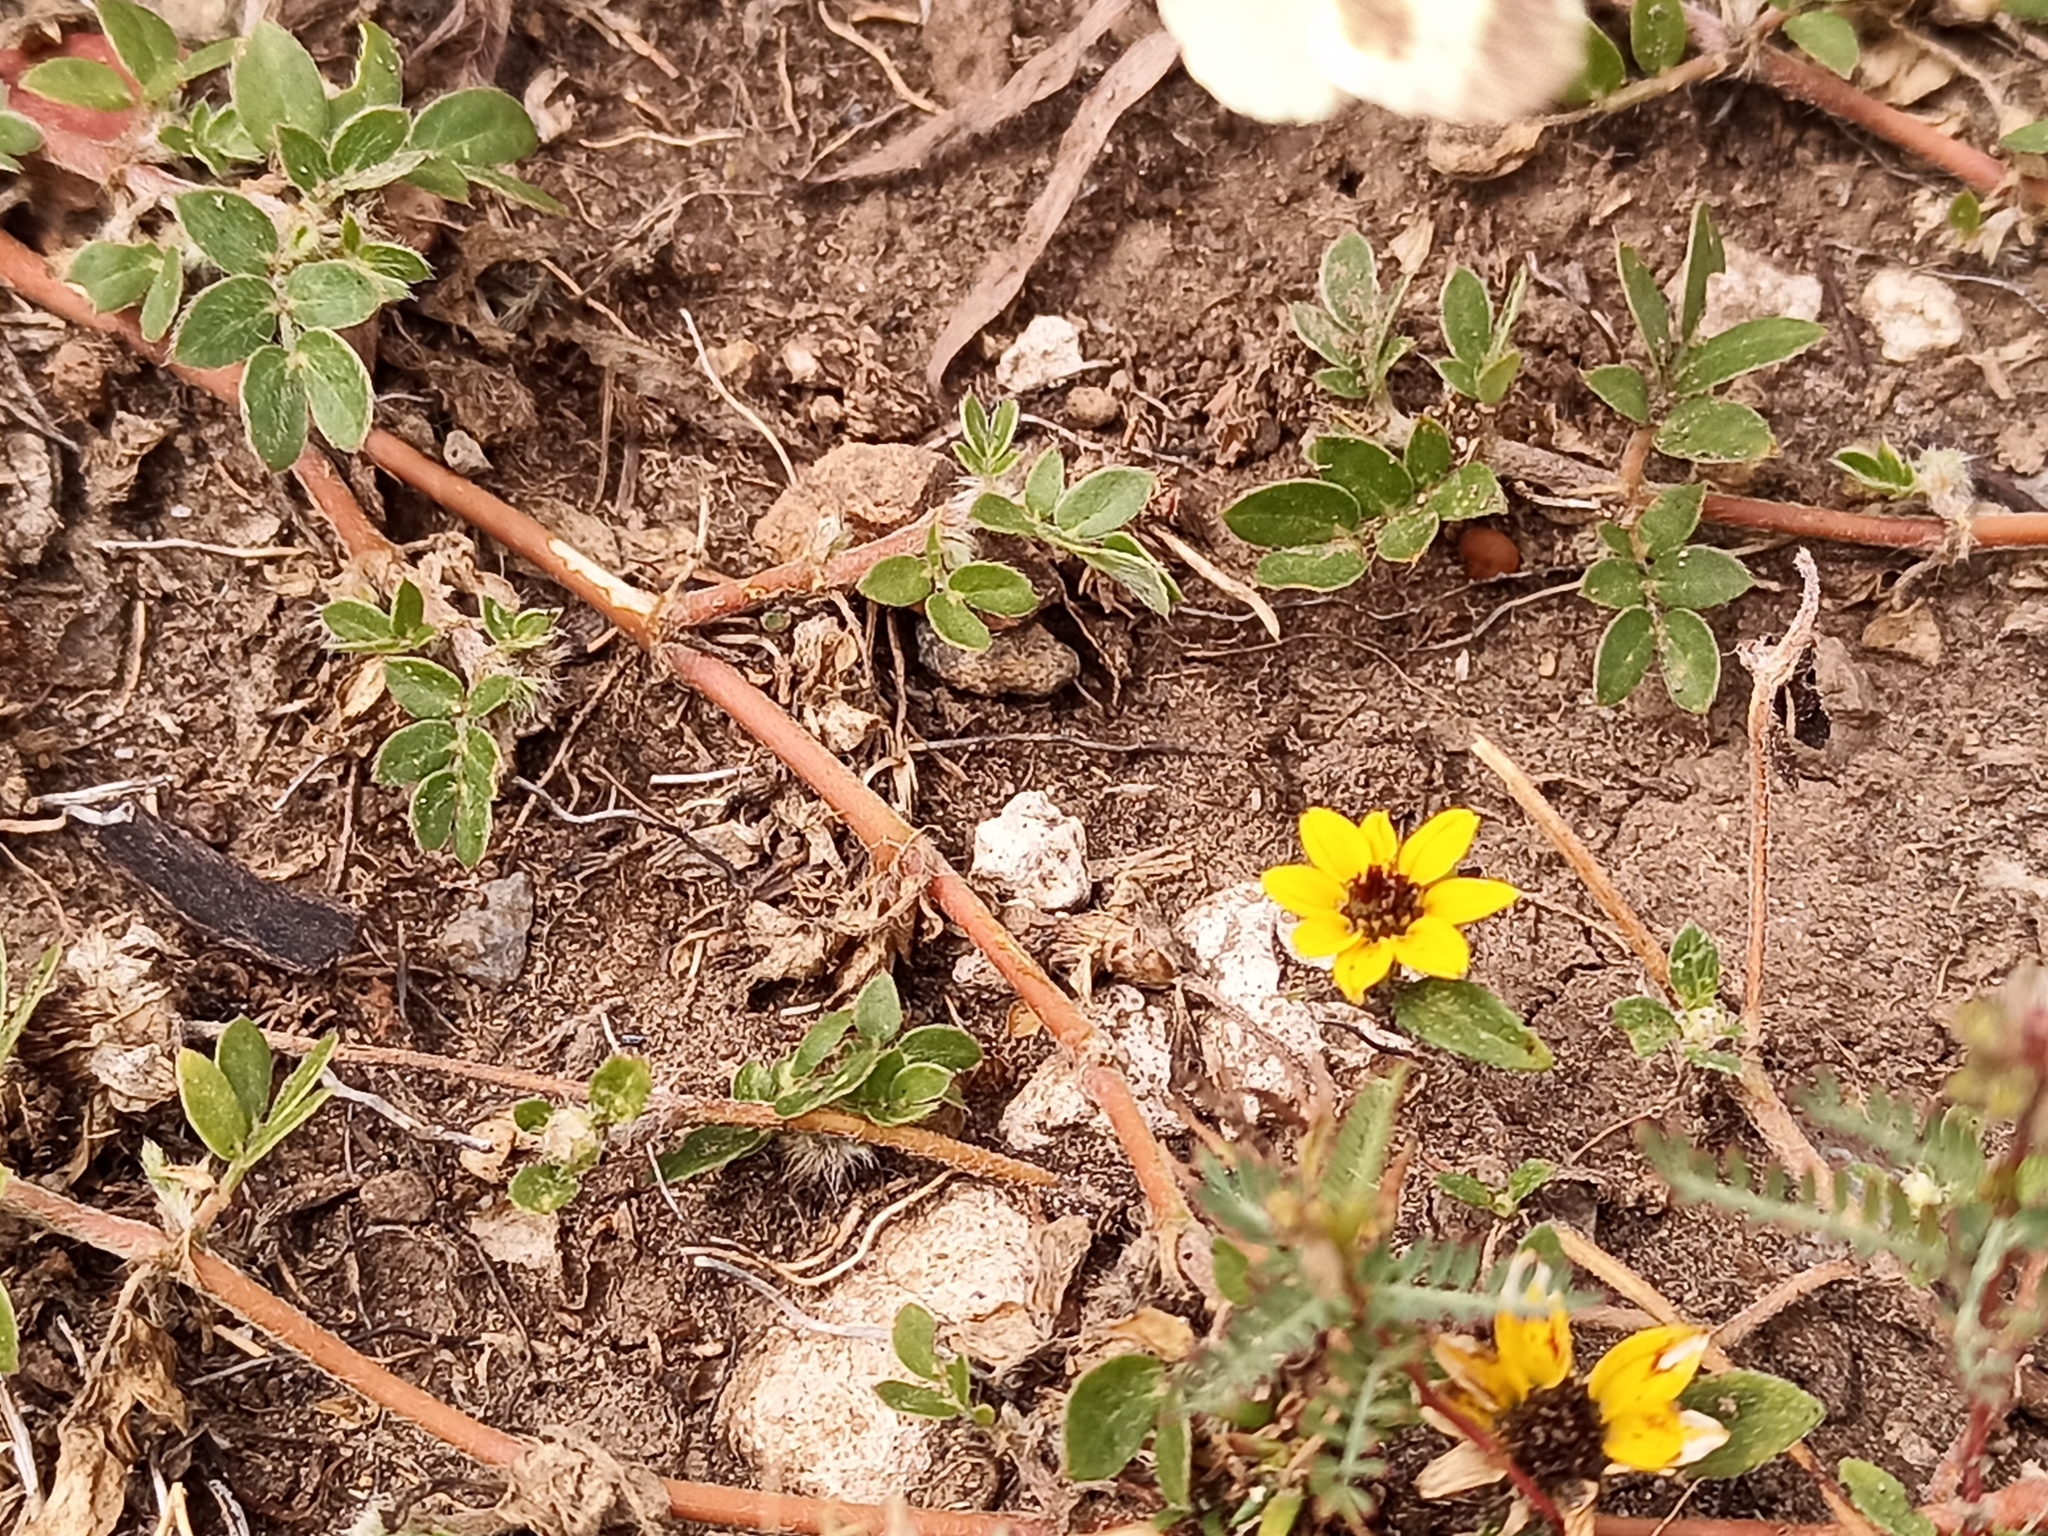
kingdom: Plantae
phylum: Tracheophyta
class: Magnoliopsida
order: Asterales
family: Asteraceae
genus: Sanvitalia
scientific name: Sanvitalia procumbens
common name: Mexican creeping zinnia
